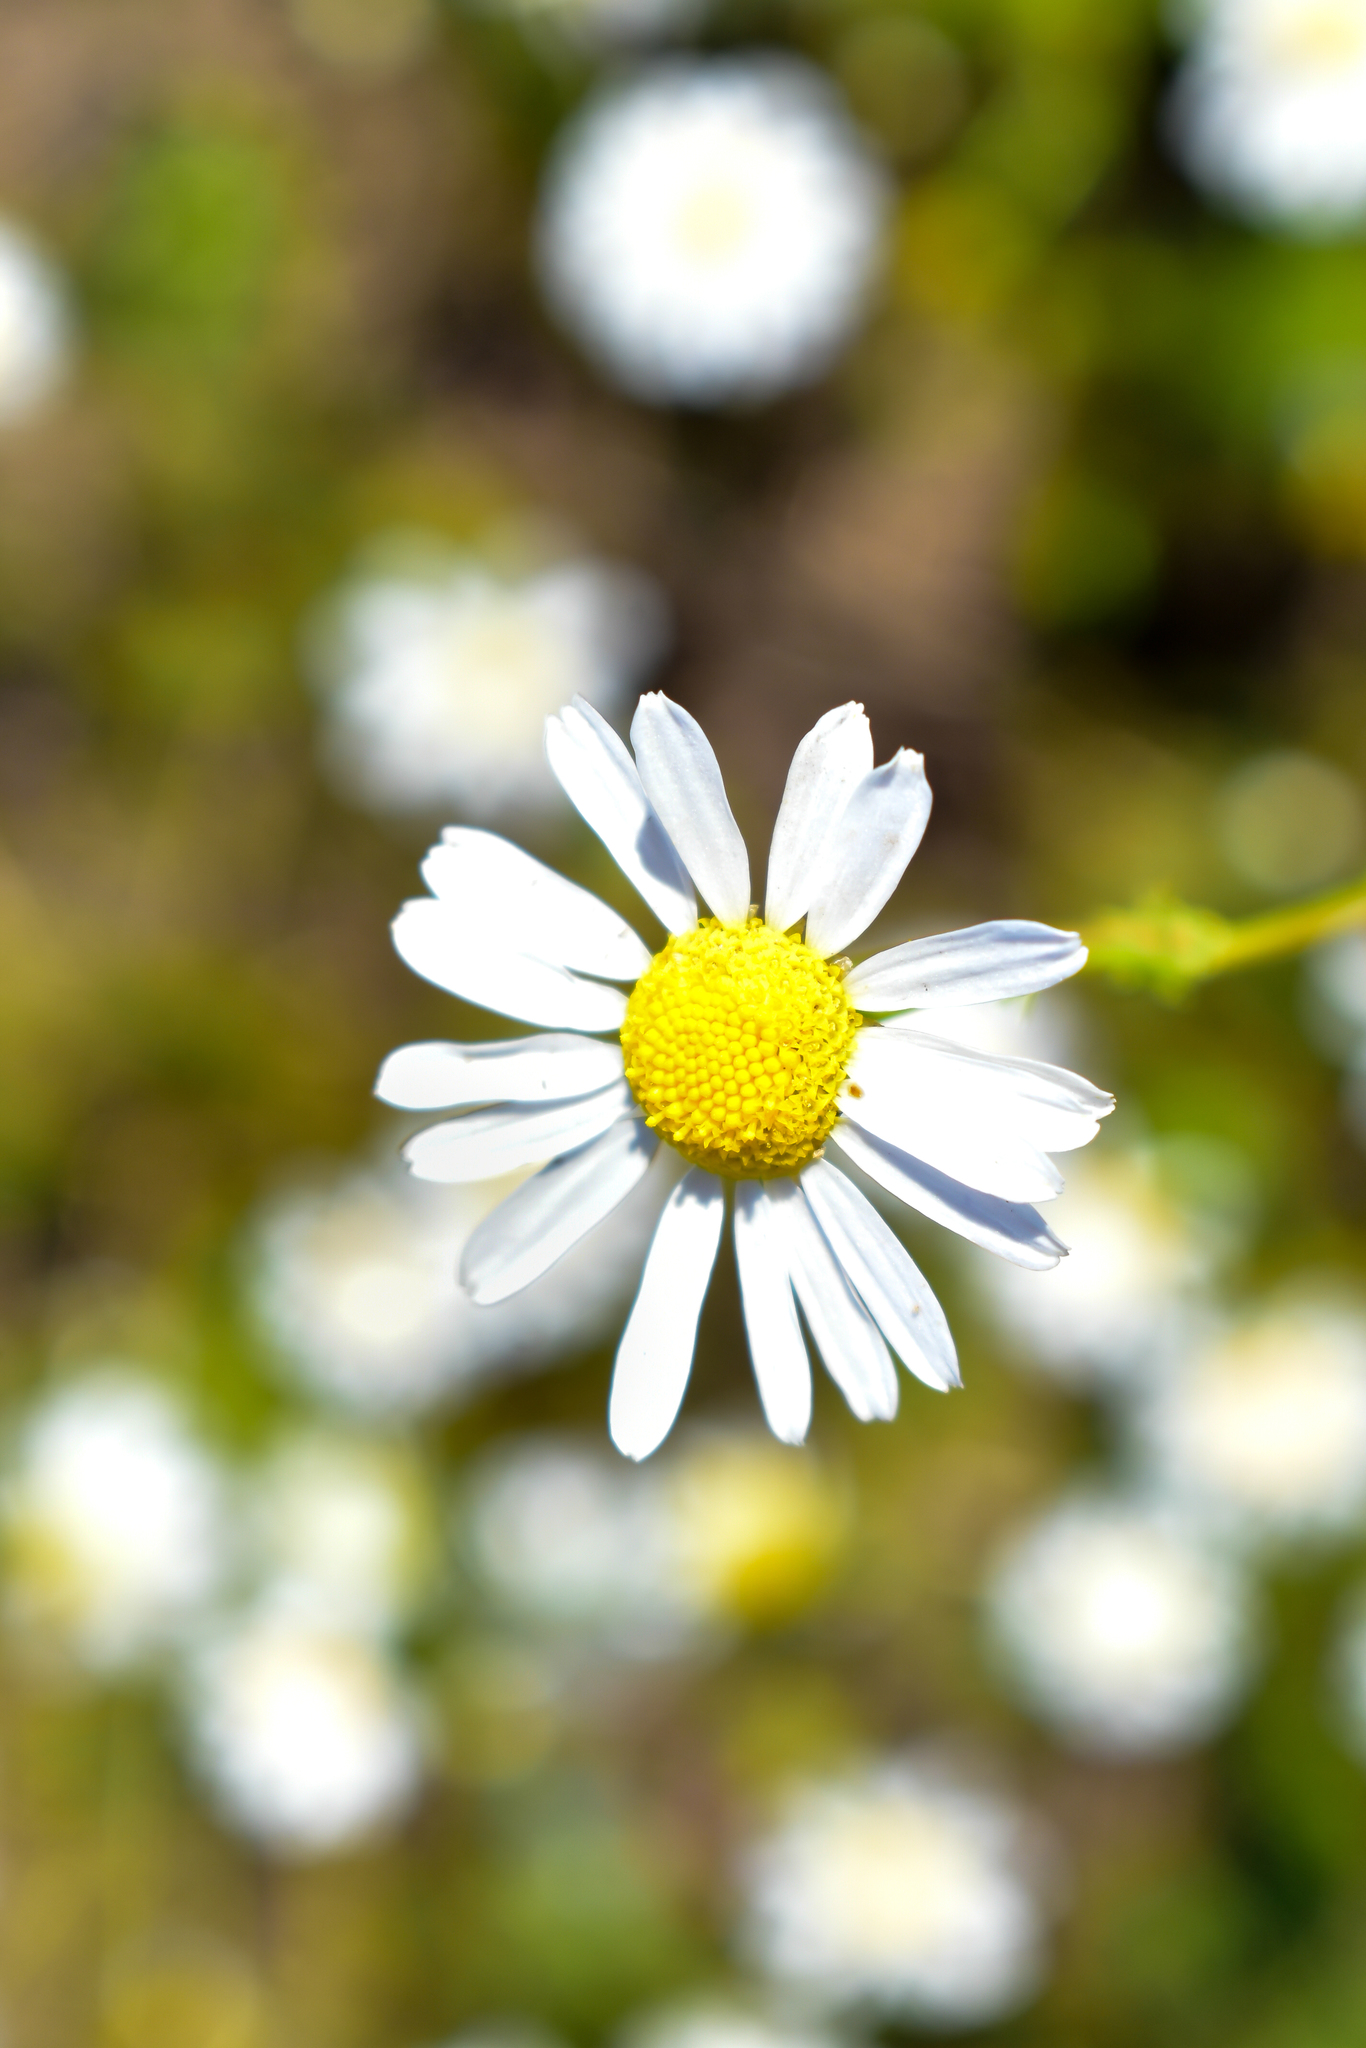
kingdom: Plantae
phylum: Tracheophyta
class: Magnoliopsida
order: Asterales
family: Asteraceae
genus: Tripleurospermum
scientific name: Tripleurospermum inodorum
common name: Scentless mayweed
